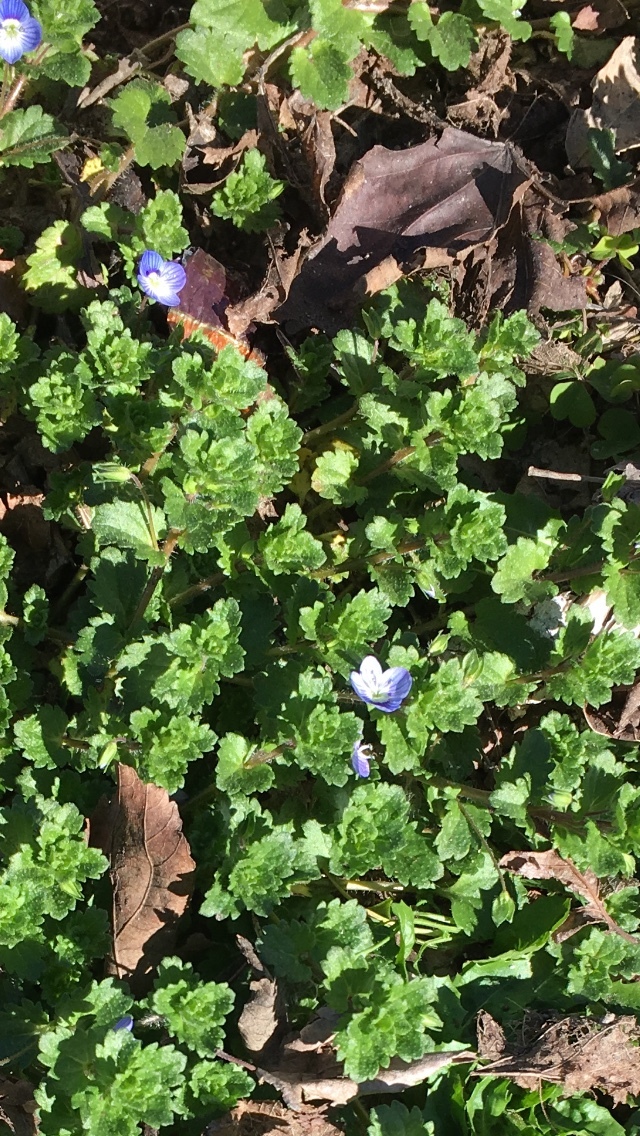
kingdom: Plantae
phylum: Tracheophyta
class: Magnoliopsida
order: Lamiales
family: Plantaginaceae
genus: Veronica
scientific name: Veronica persica
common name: Common field-speedwell
